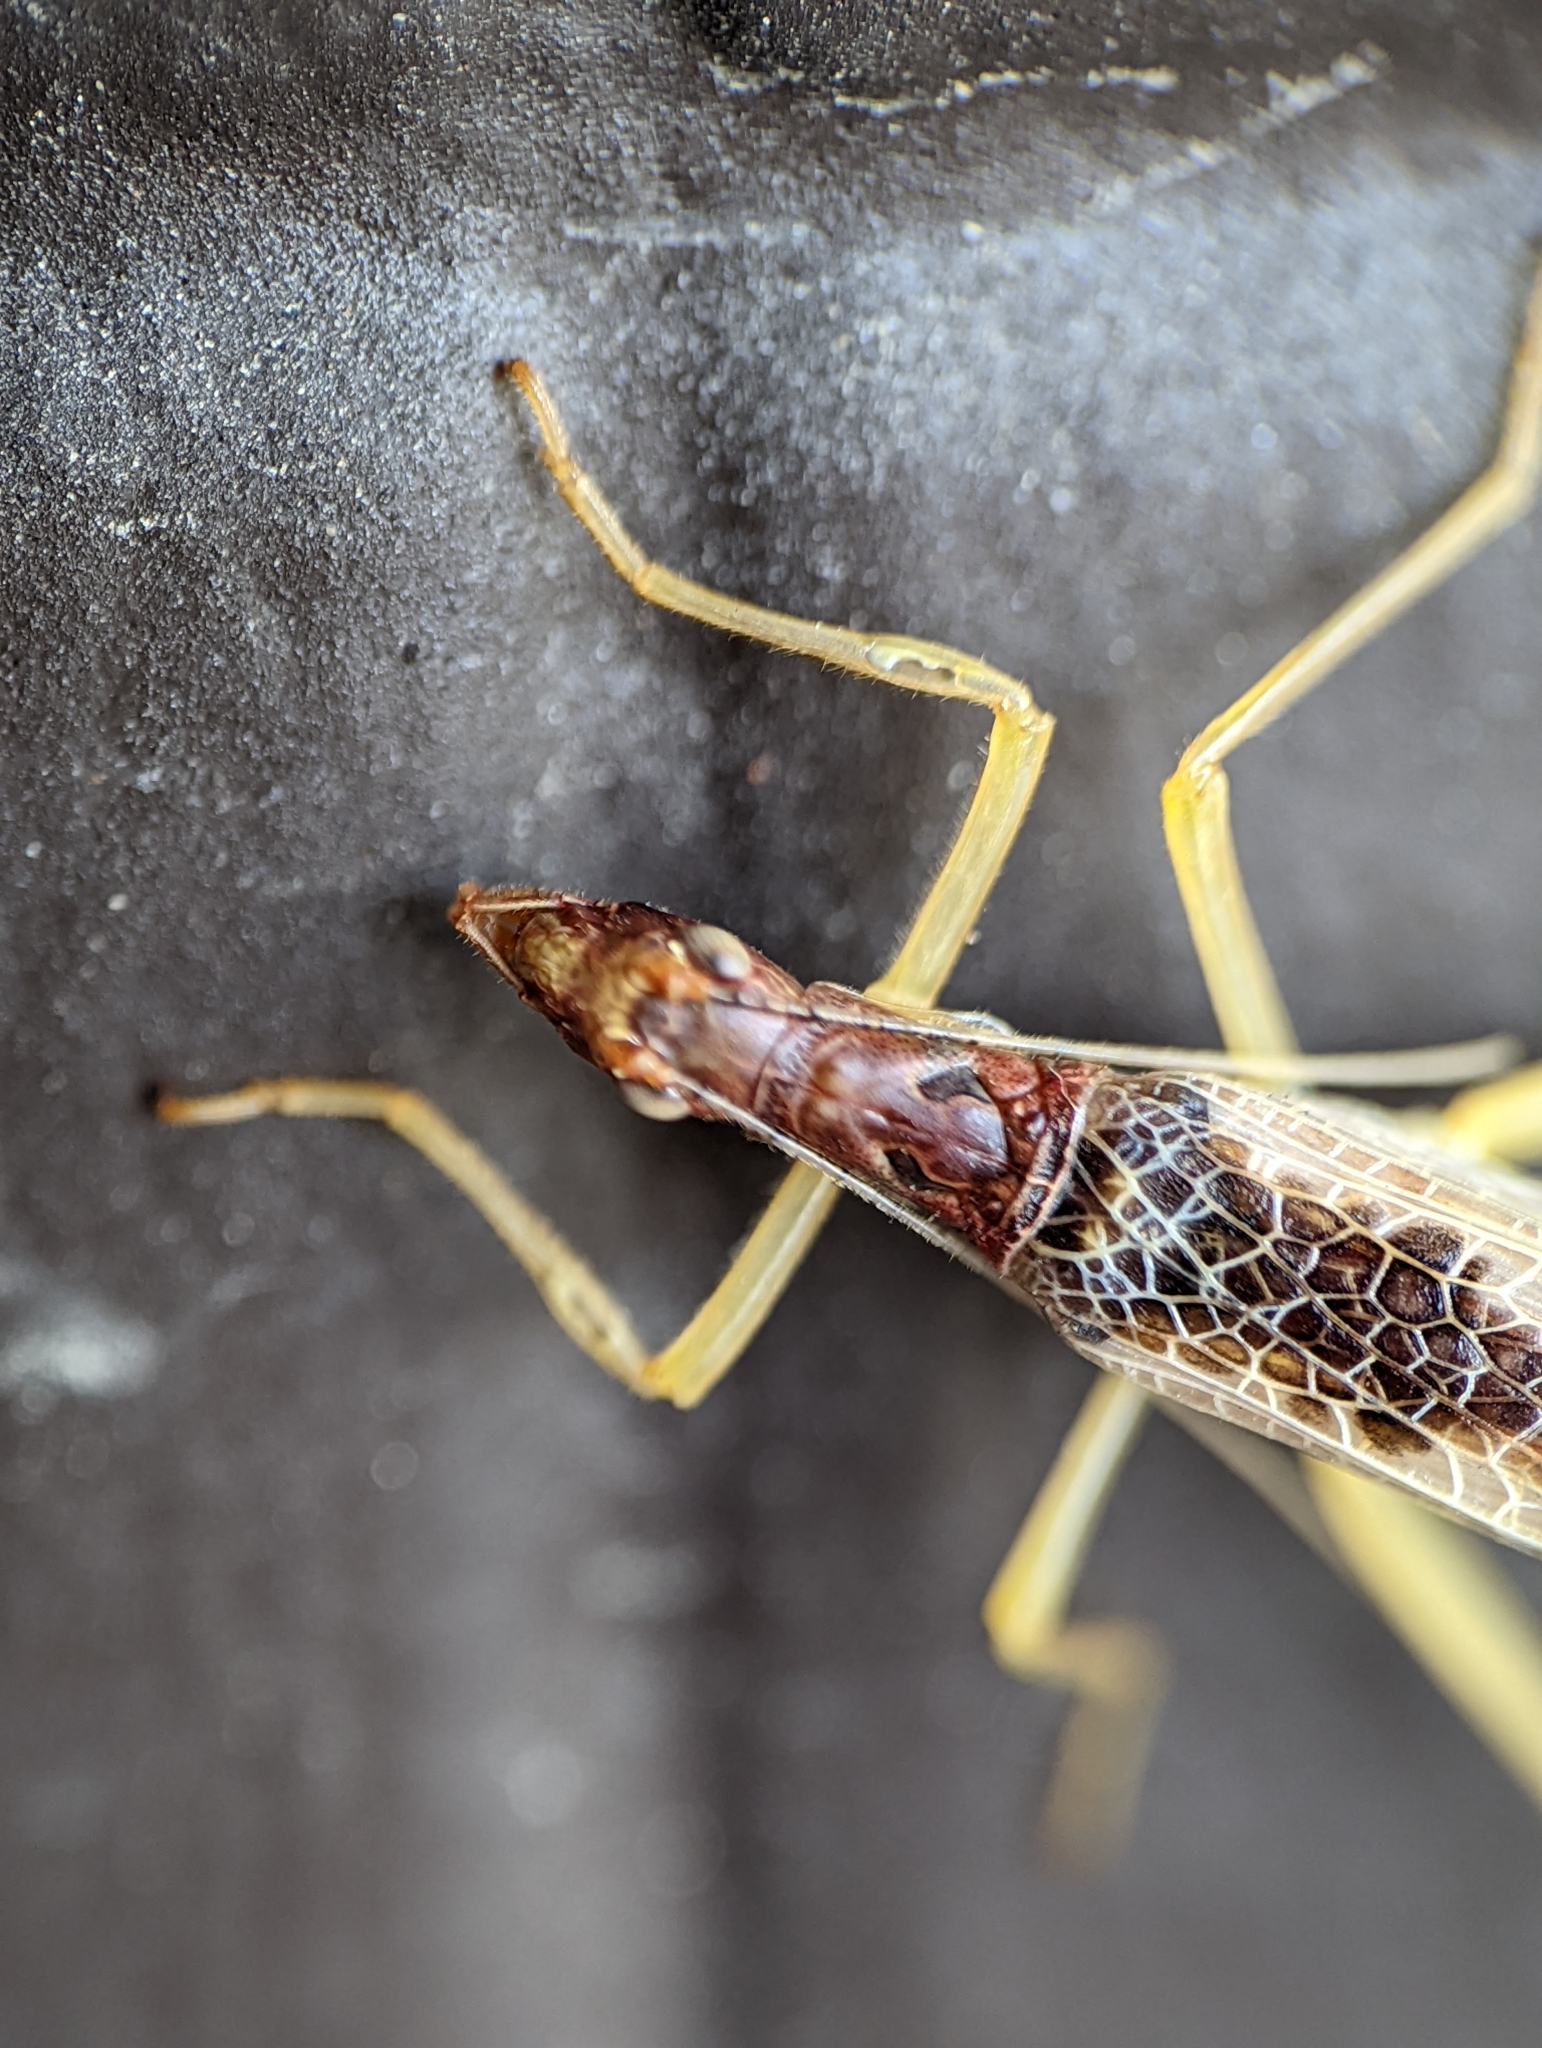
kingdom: Animalia
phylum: Arthropoda
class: Insecta
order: Orthoptera
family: Gryllidae
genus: Neoxabea
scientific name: Neoxabea bipunctata
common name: Two-spotted tree cricket
